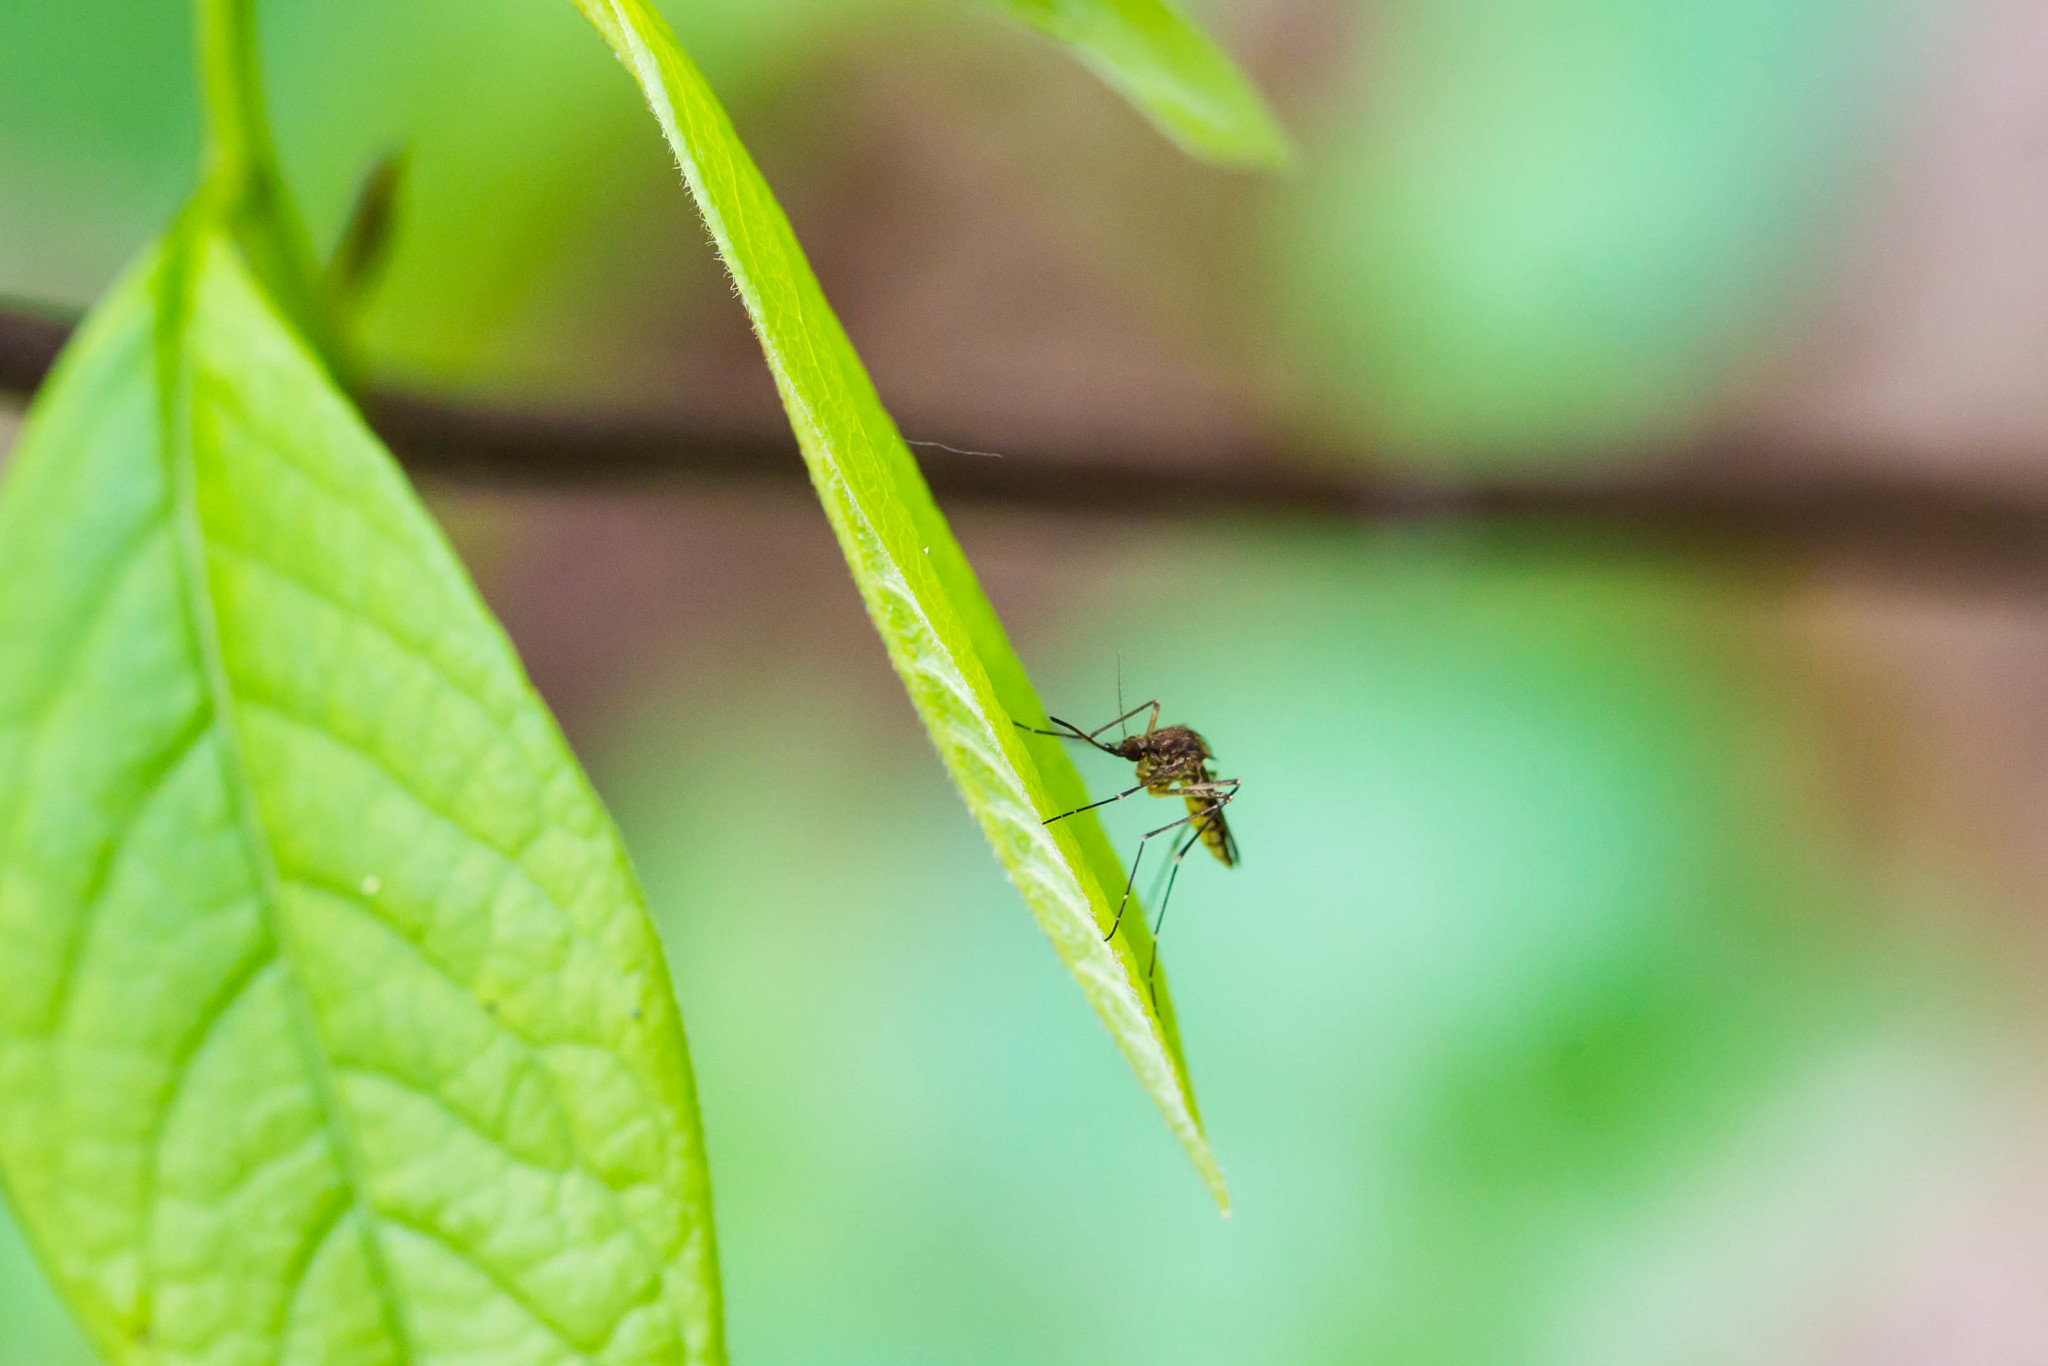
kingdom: Animalia
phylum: Arthropoda
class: Insecta
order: Diptera
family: Culicidae
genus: Aedes
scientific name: Aedes vexans
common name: Inland floodwater mosquito
